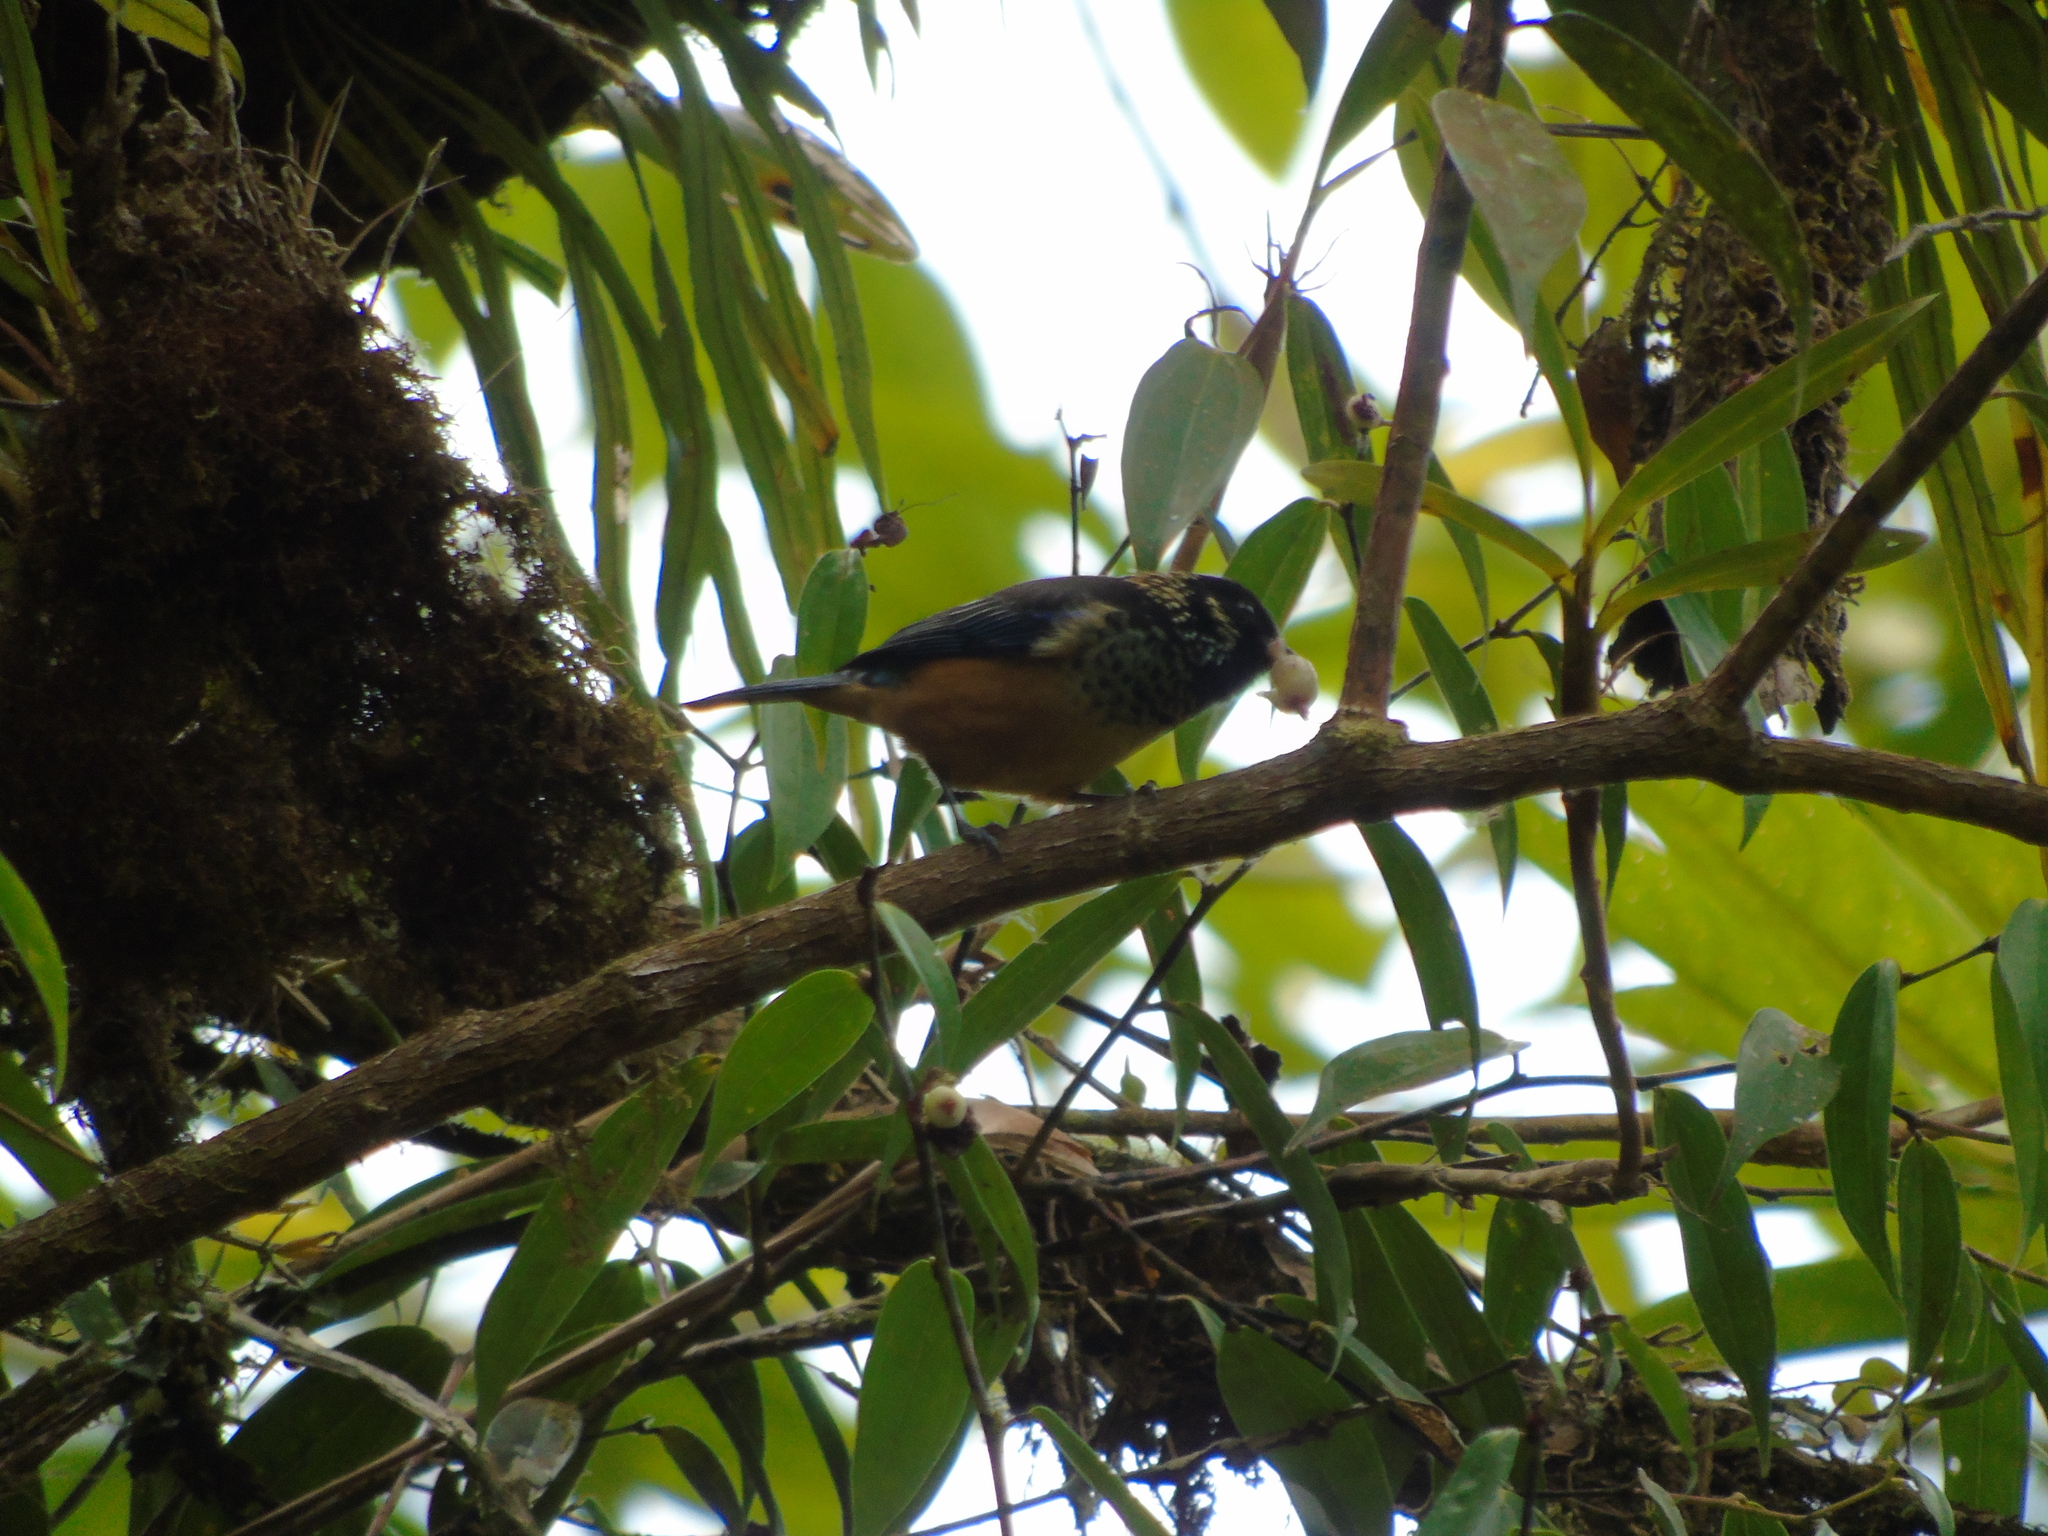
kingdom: Animalia
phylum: Chordata
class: Aves
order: Passeriformes
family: Thraupidae
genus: Tangara
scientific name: Tangara dowii
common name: Spangle-cheeked tanager
